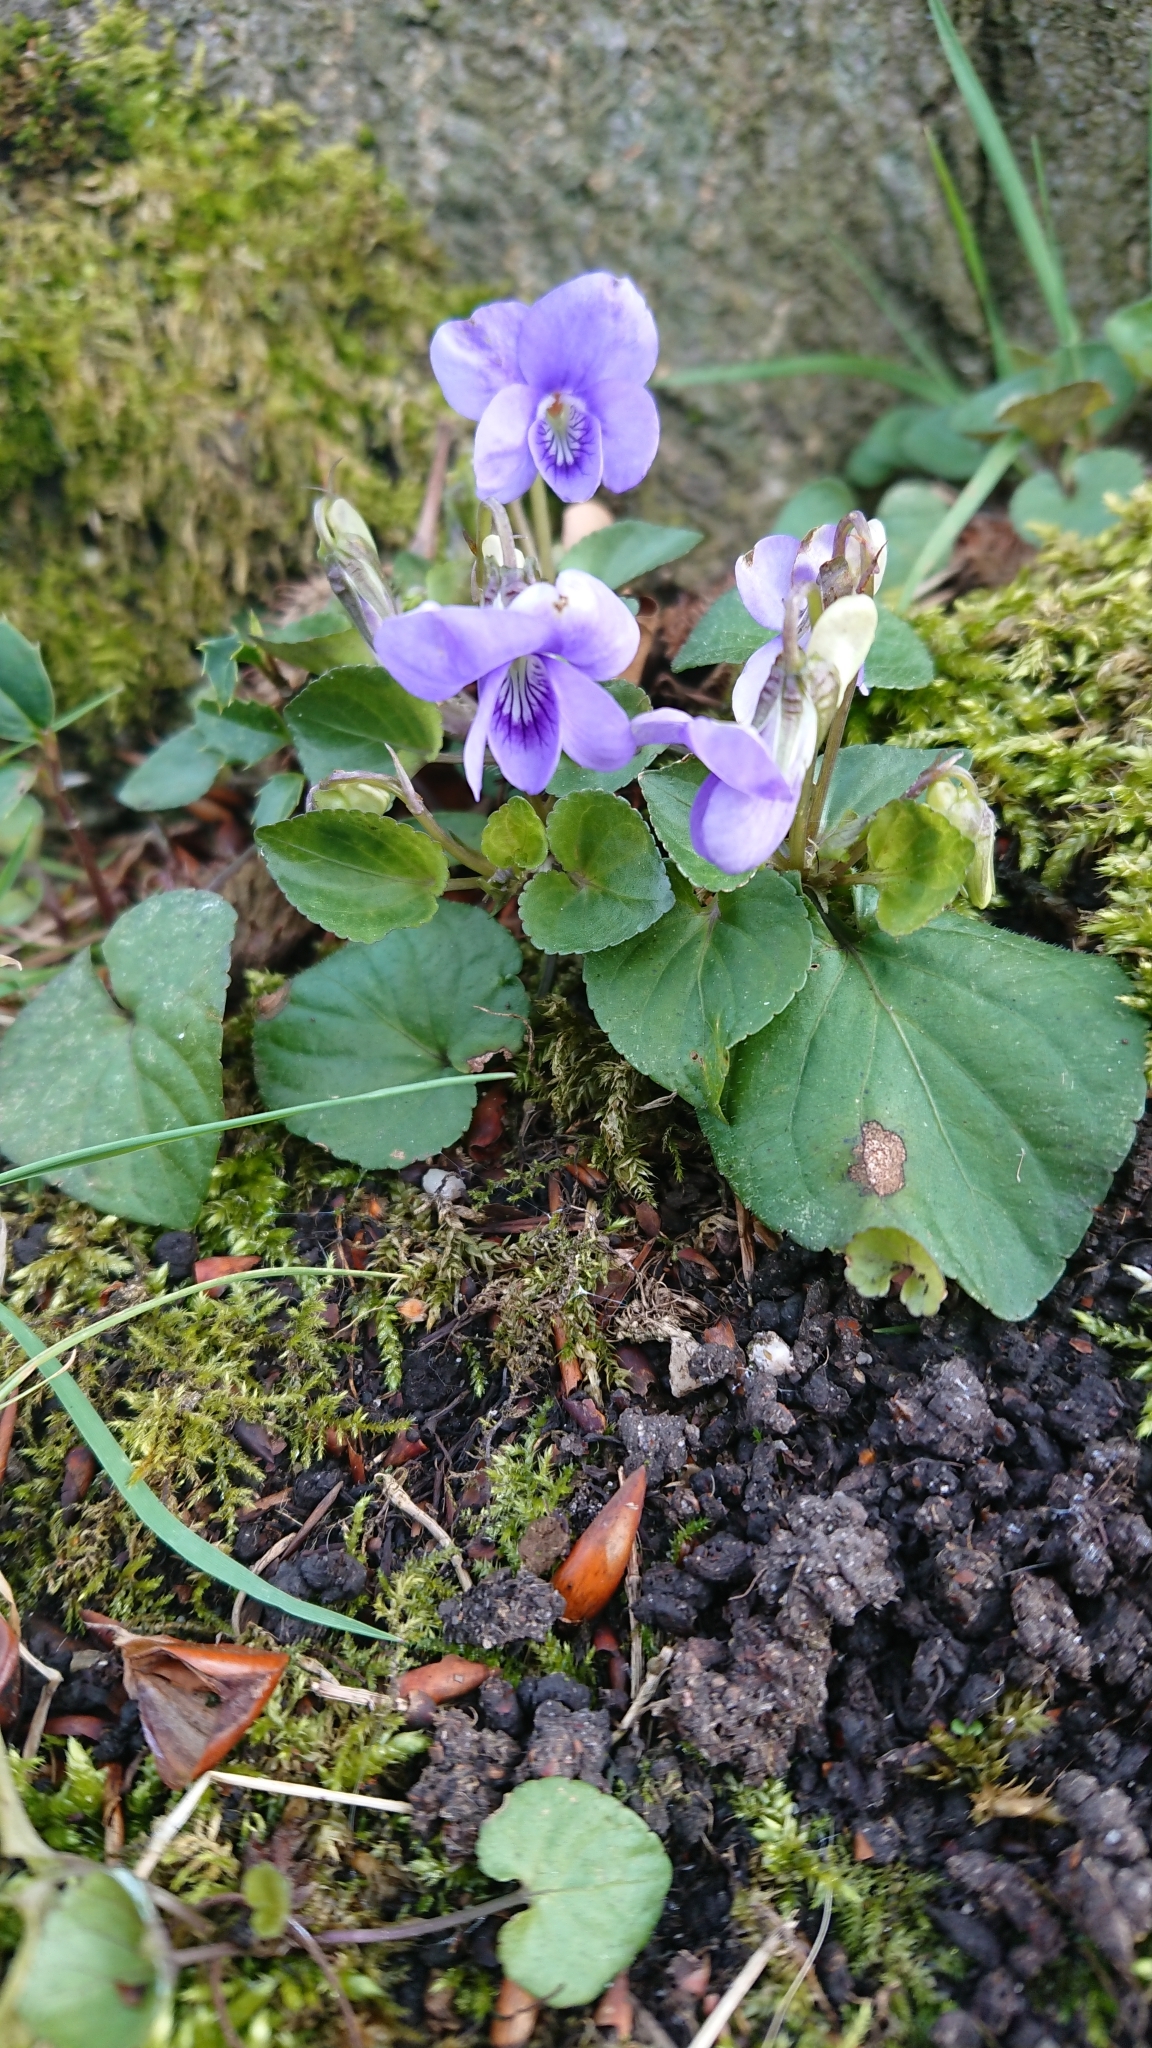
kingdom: Plantae
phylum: Tracheophyta
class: Magnoliopsida
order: Malpighiales
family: Violaceae
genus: Viola
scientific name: Viola riviniana
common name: Common dog-violet
